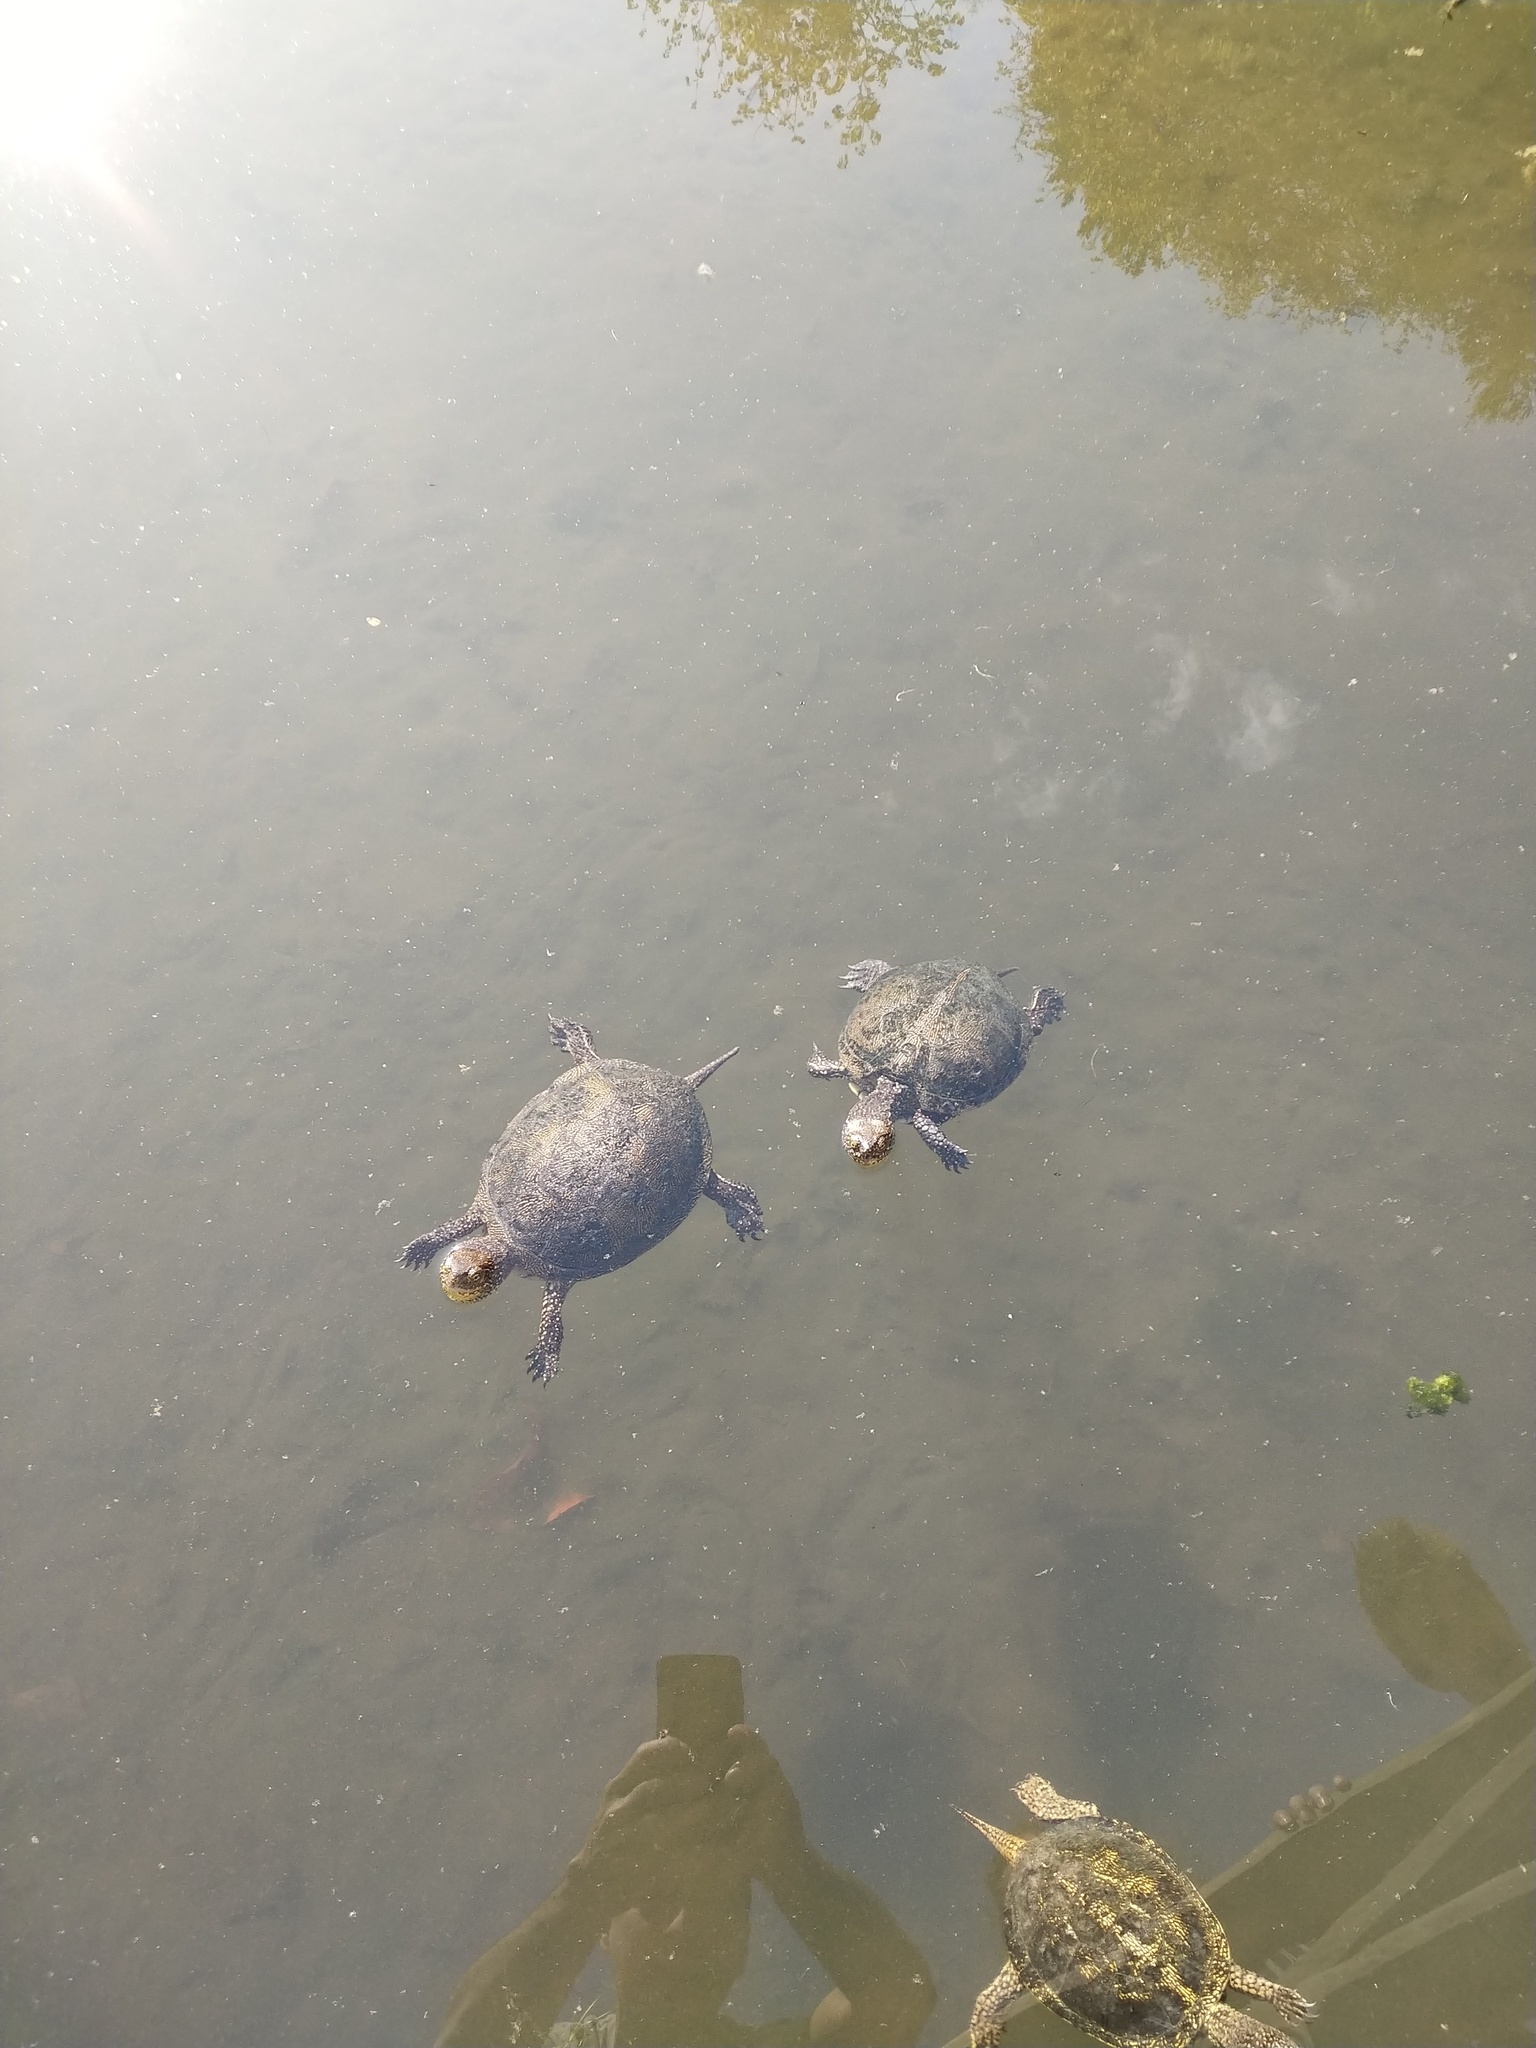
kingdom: Animalia
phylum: Chordata
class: Testudines
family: Emydidae
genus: Emys
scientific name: Emys orbicularis
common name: European pond turtle
